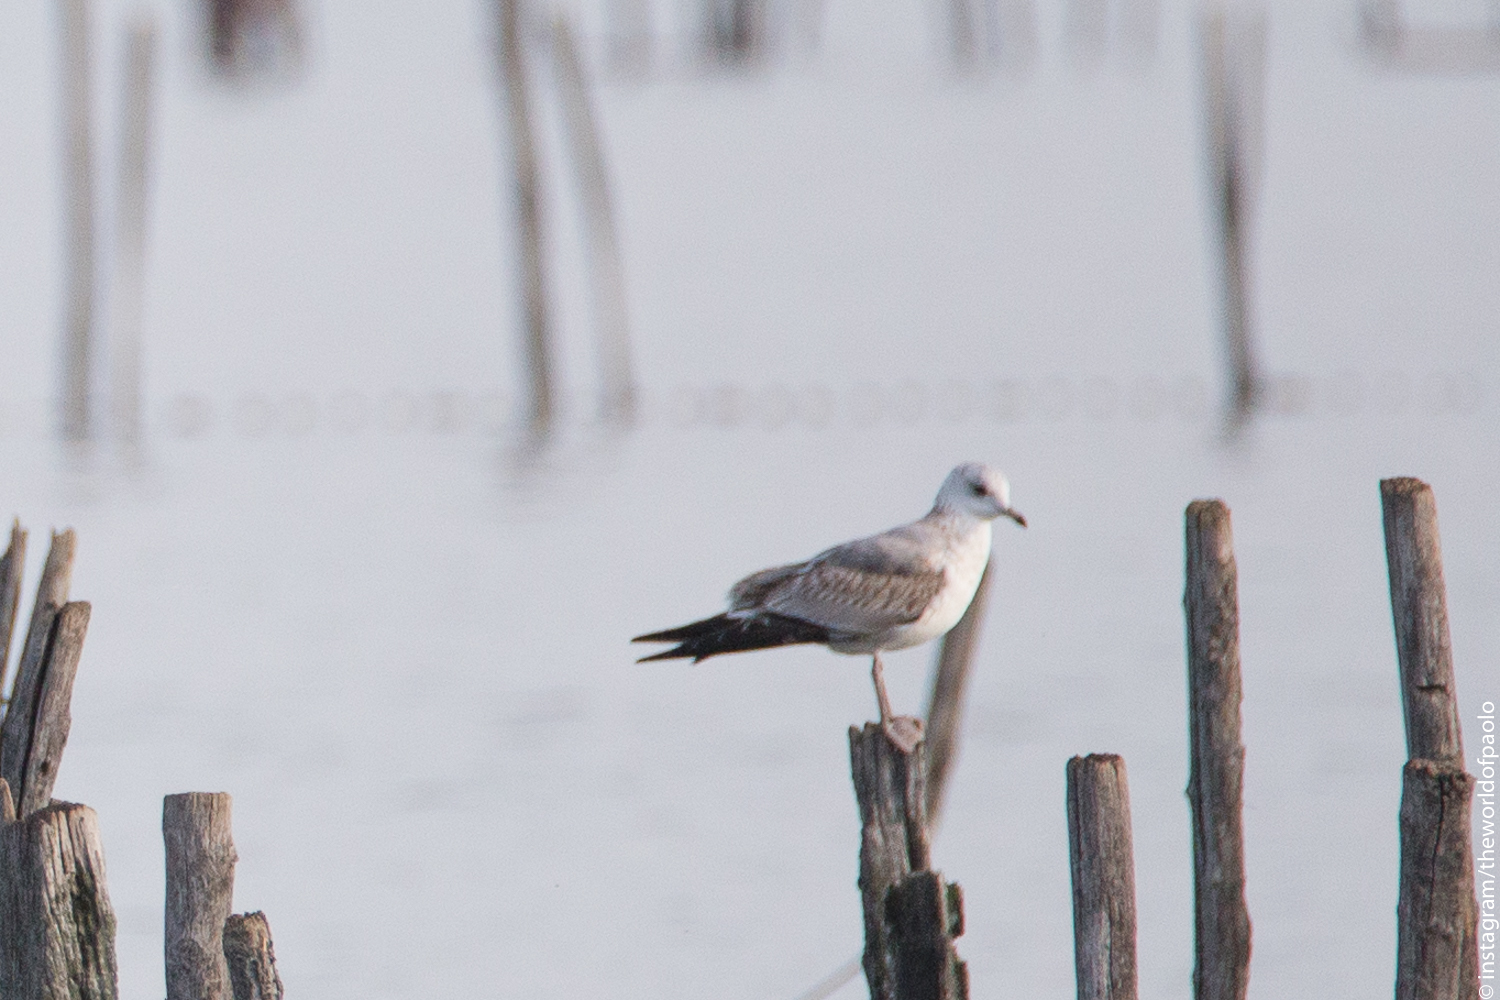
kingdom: Animalia
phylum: Chordata
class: Aves
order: Charadriiformes
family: Laridae
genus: Larus
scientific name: Larus canus
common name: Mew gull
